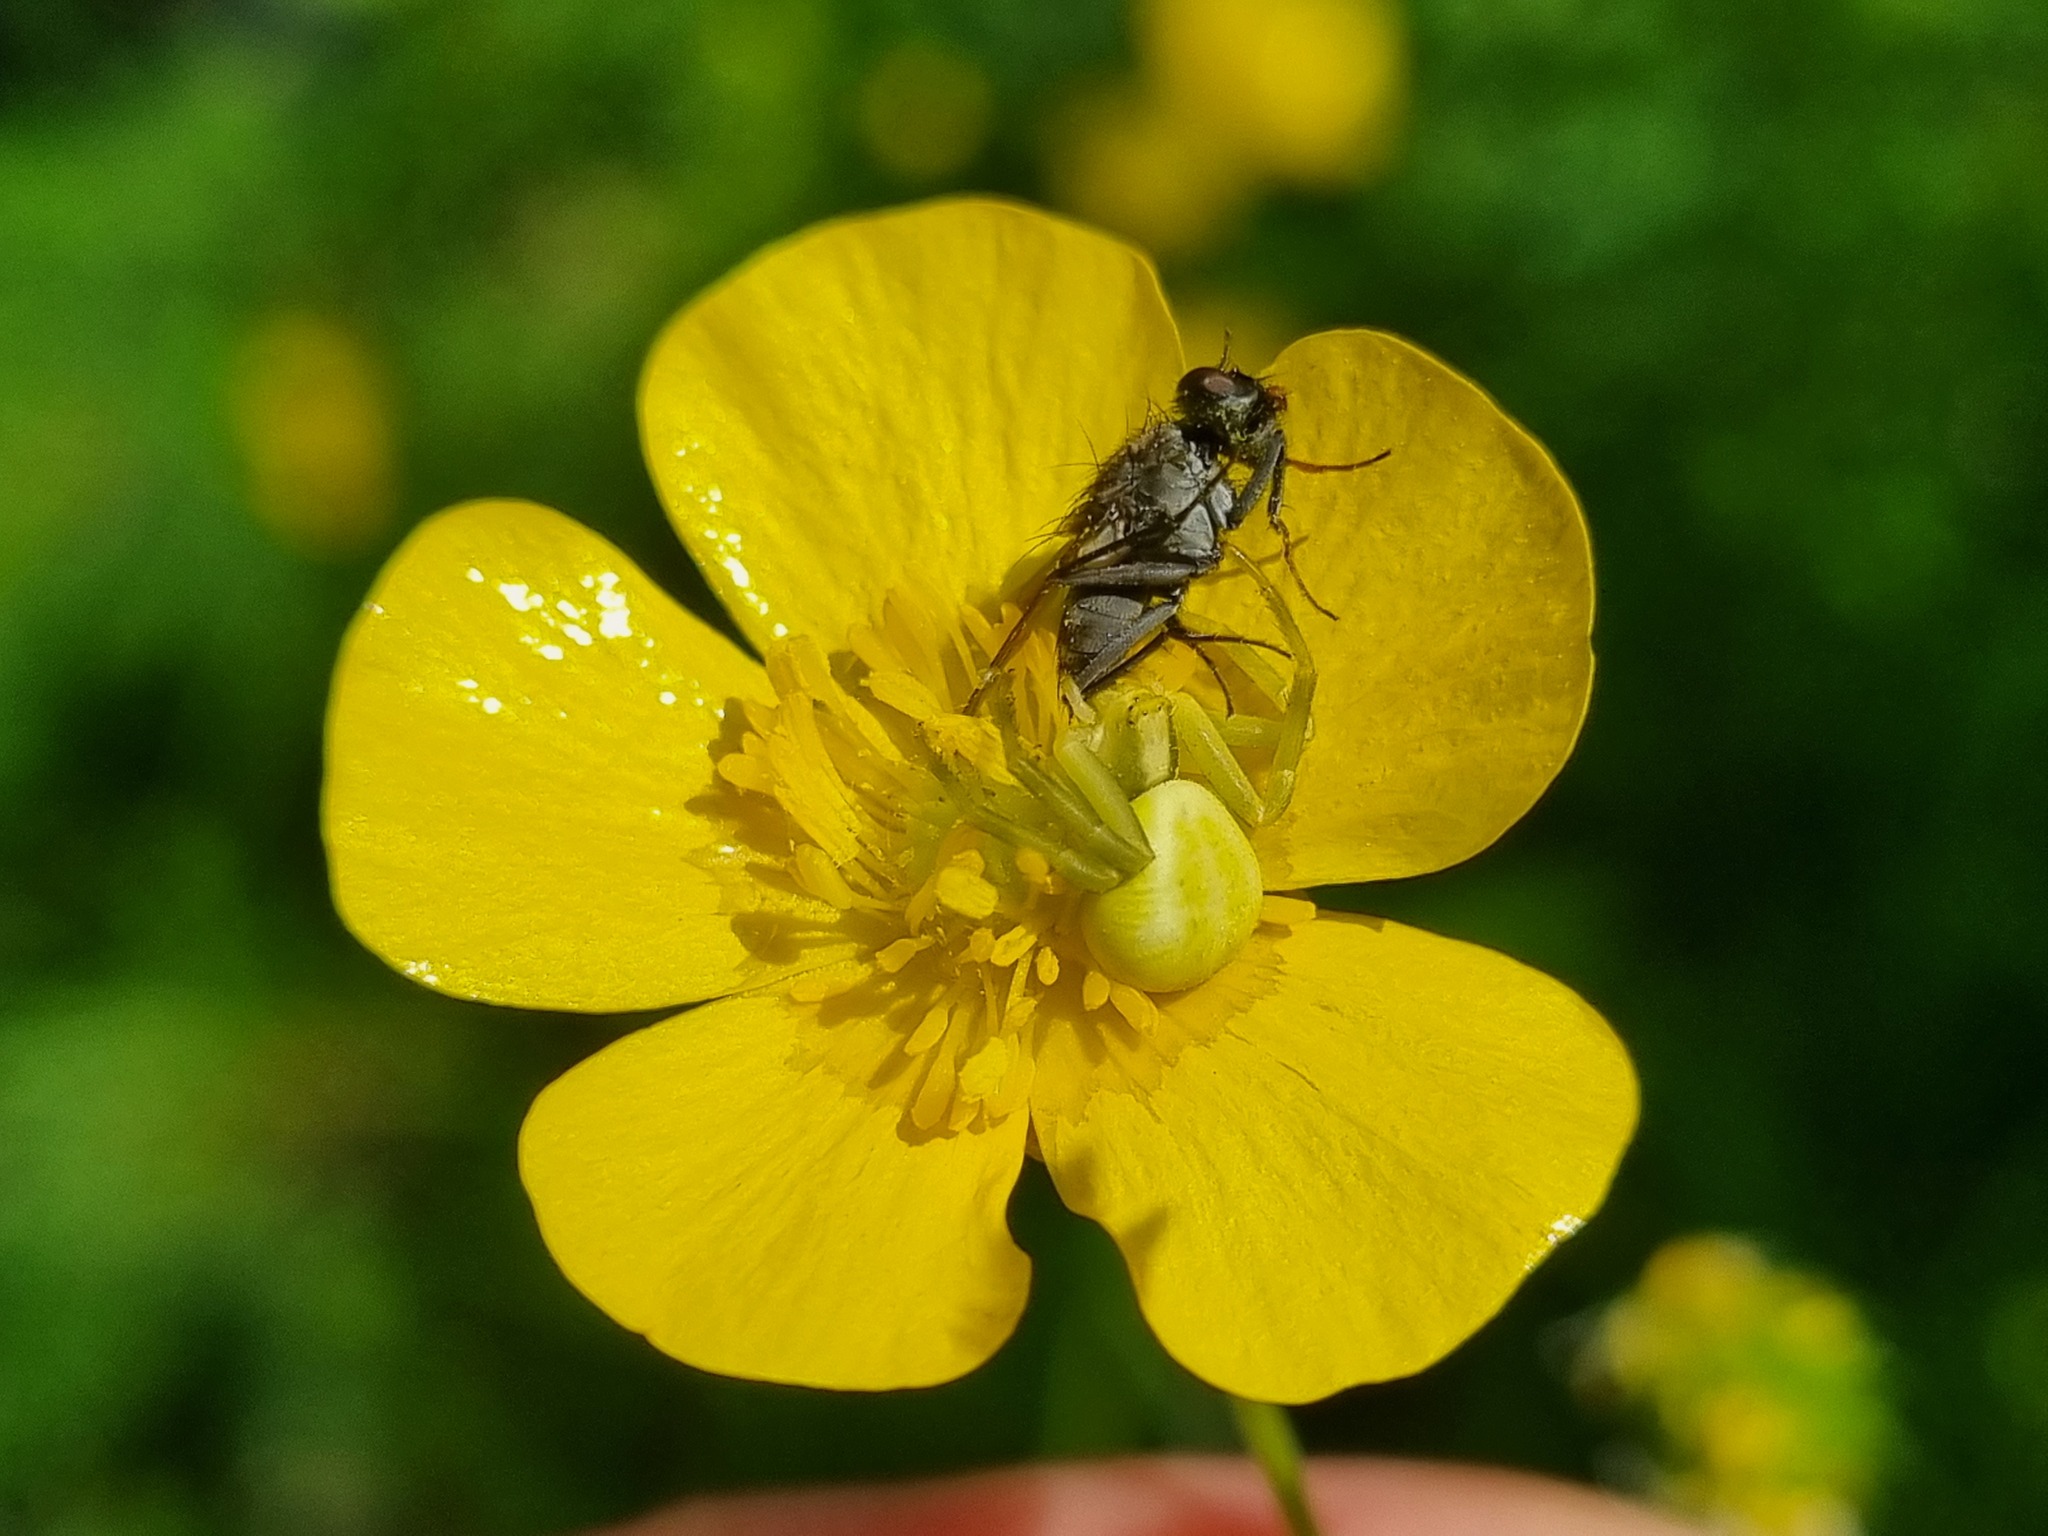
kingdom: Animalia
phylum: Arthropoda
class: Arachnida
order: Araneae
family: Thomisidae
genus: Misumena
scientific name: Misumena vatia
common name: Goldenrod crab spider
